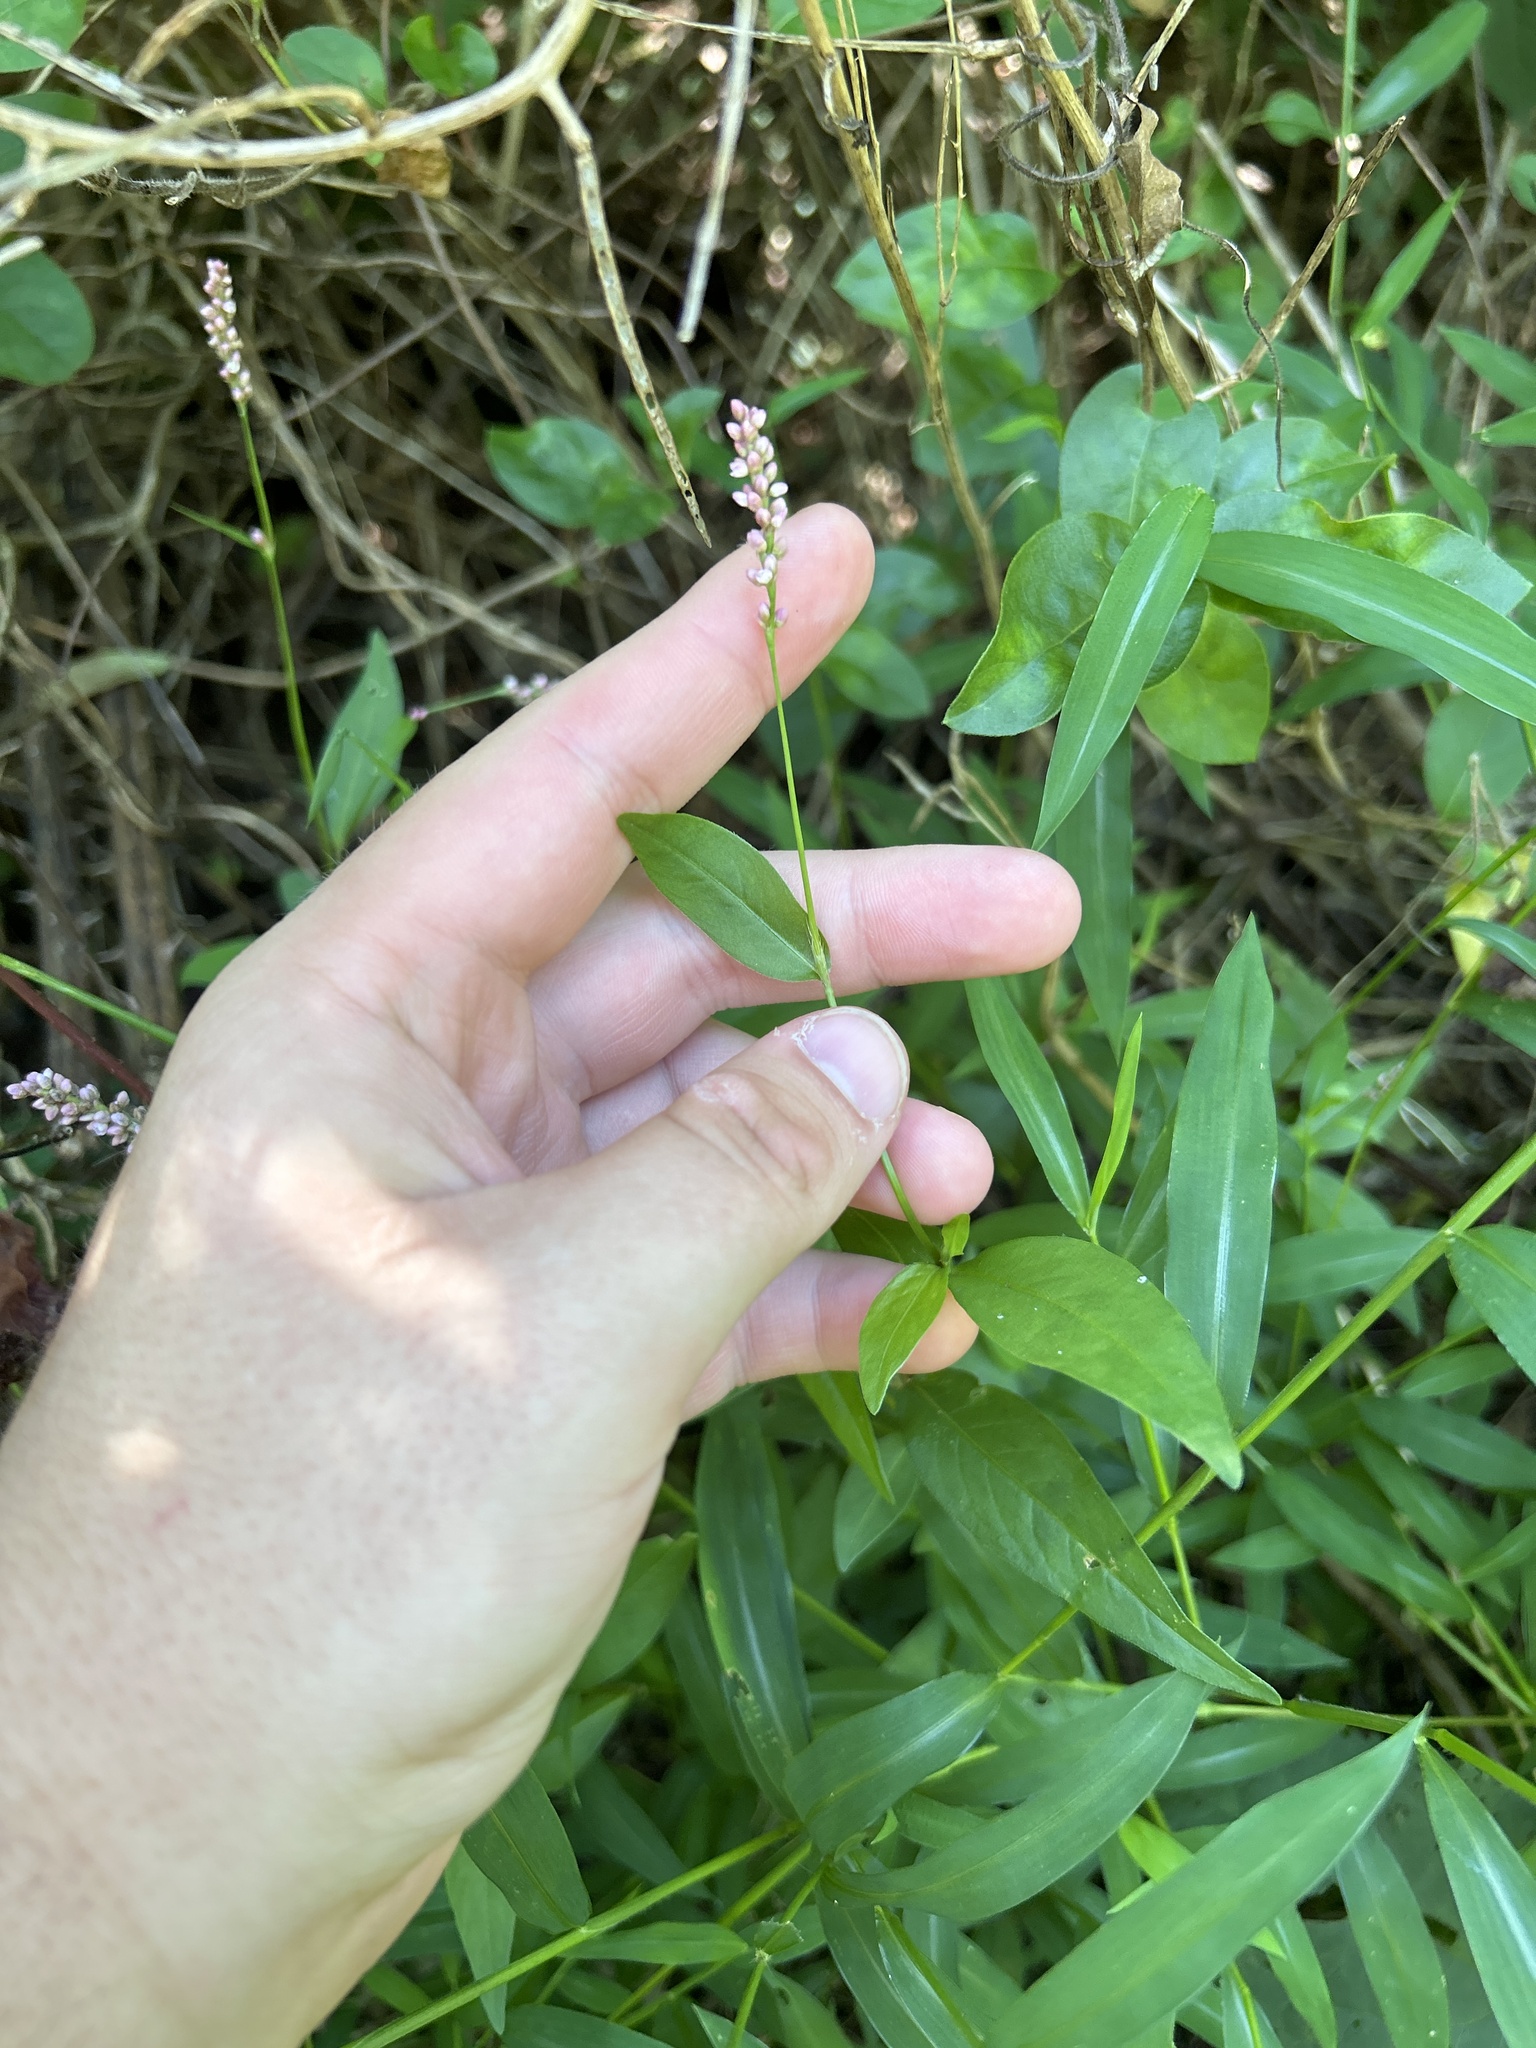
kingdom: Plantae
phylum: Tracheophyta
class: Magnoliopsida
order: Caryophyllales
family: Polygonaceae
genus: Persicaria
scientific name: Persicaria longiseta
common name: Bristly lady's-thumb
